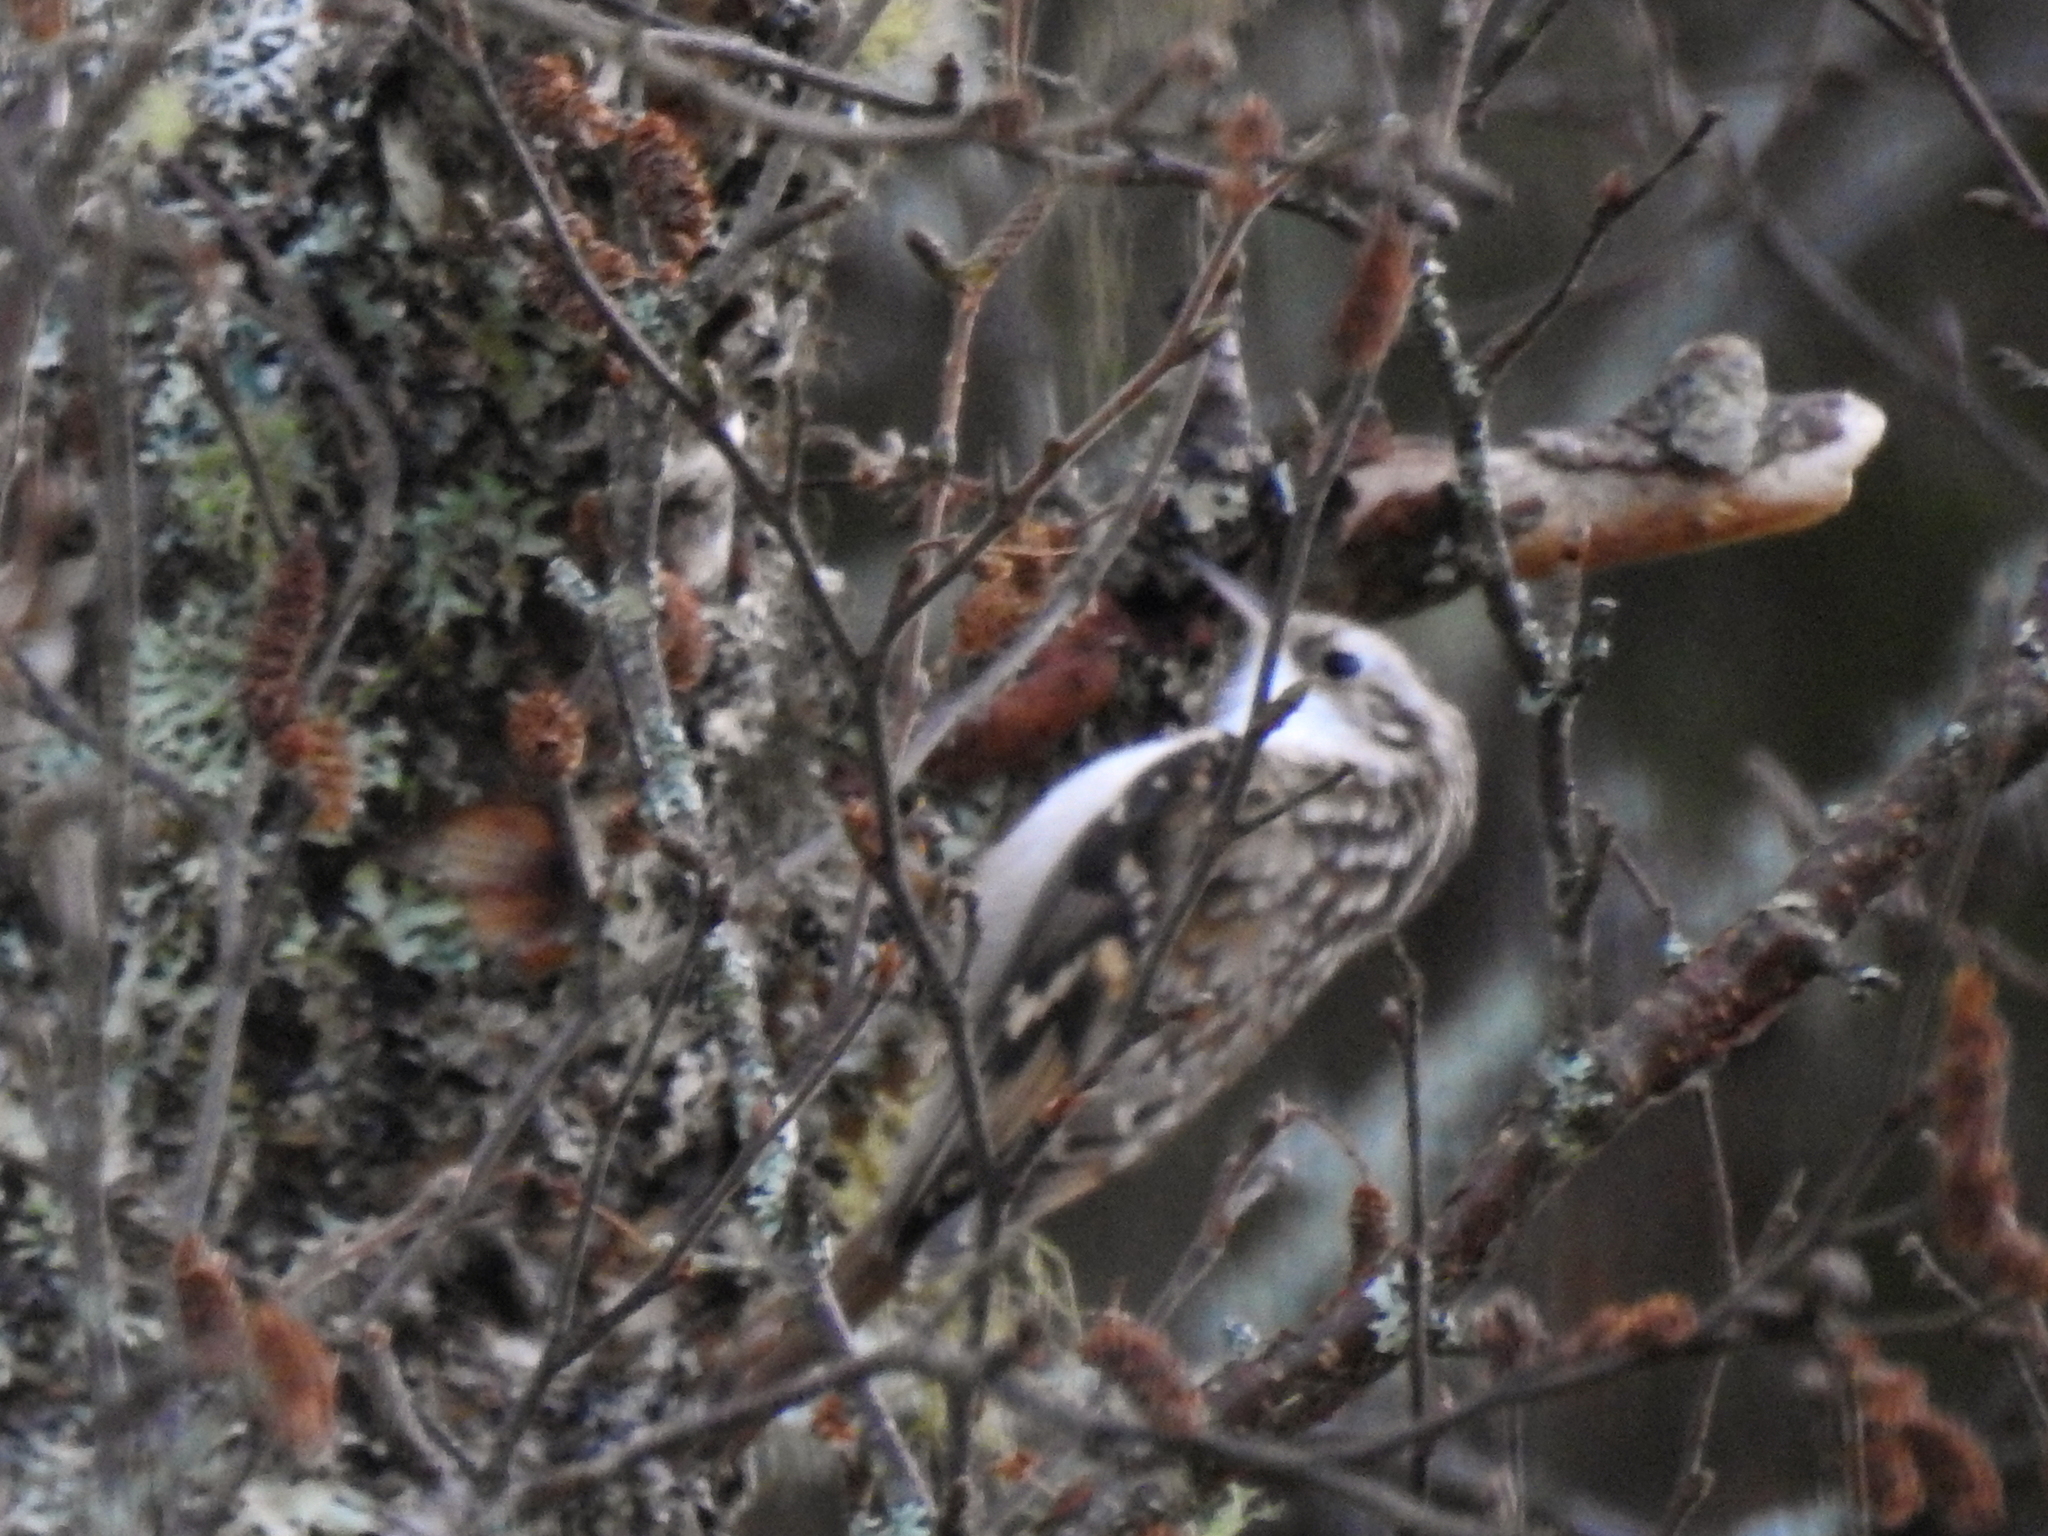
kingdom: Animalia
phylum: Chordata
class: Aves
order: Passeriformes
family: Certhiidae
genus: Certhia
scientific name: Certhia familiaris
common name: Eurasian treecreeper
